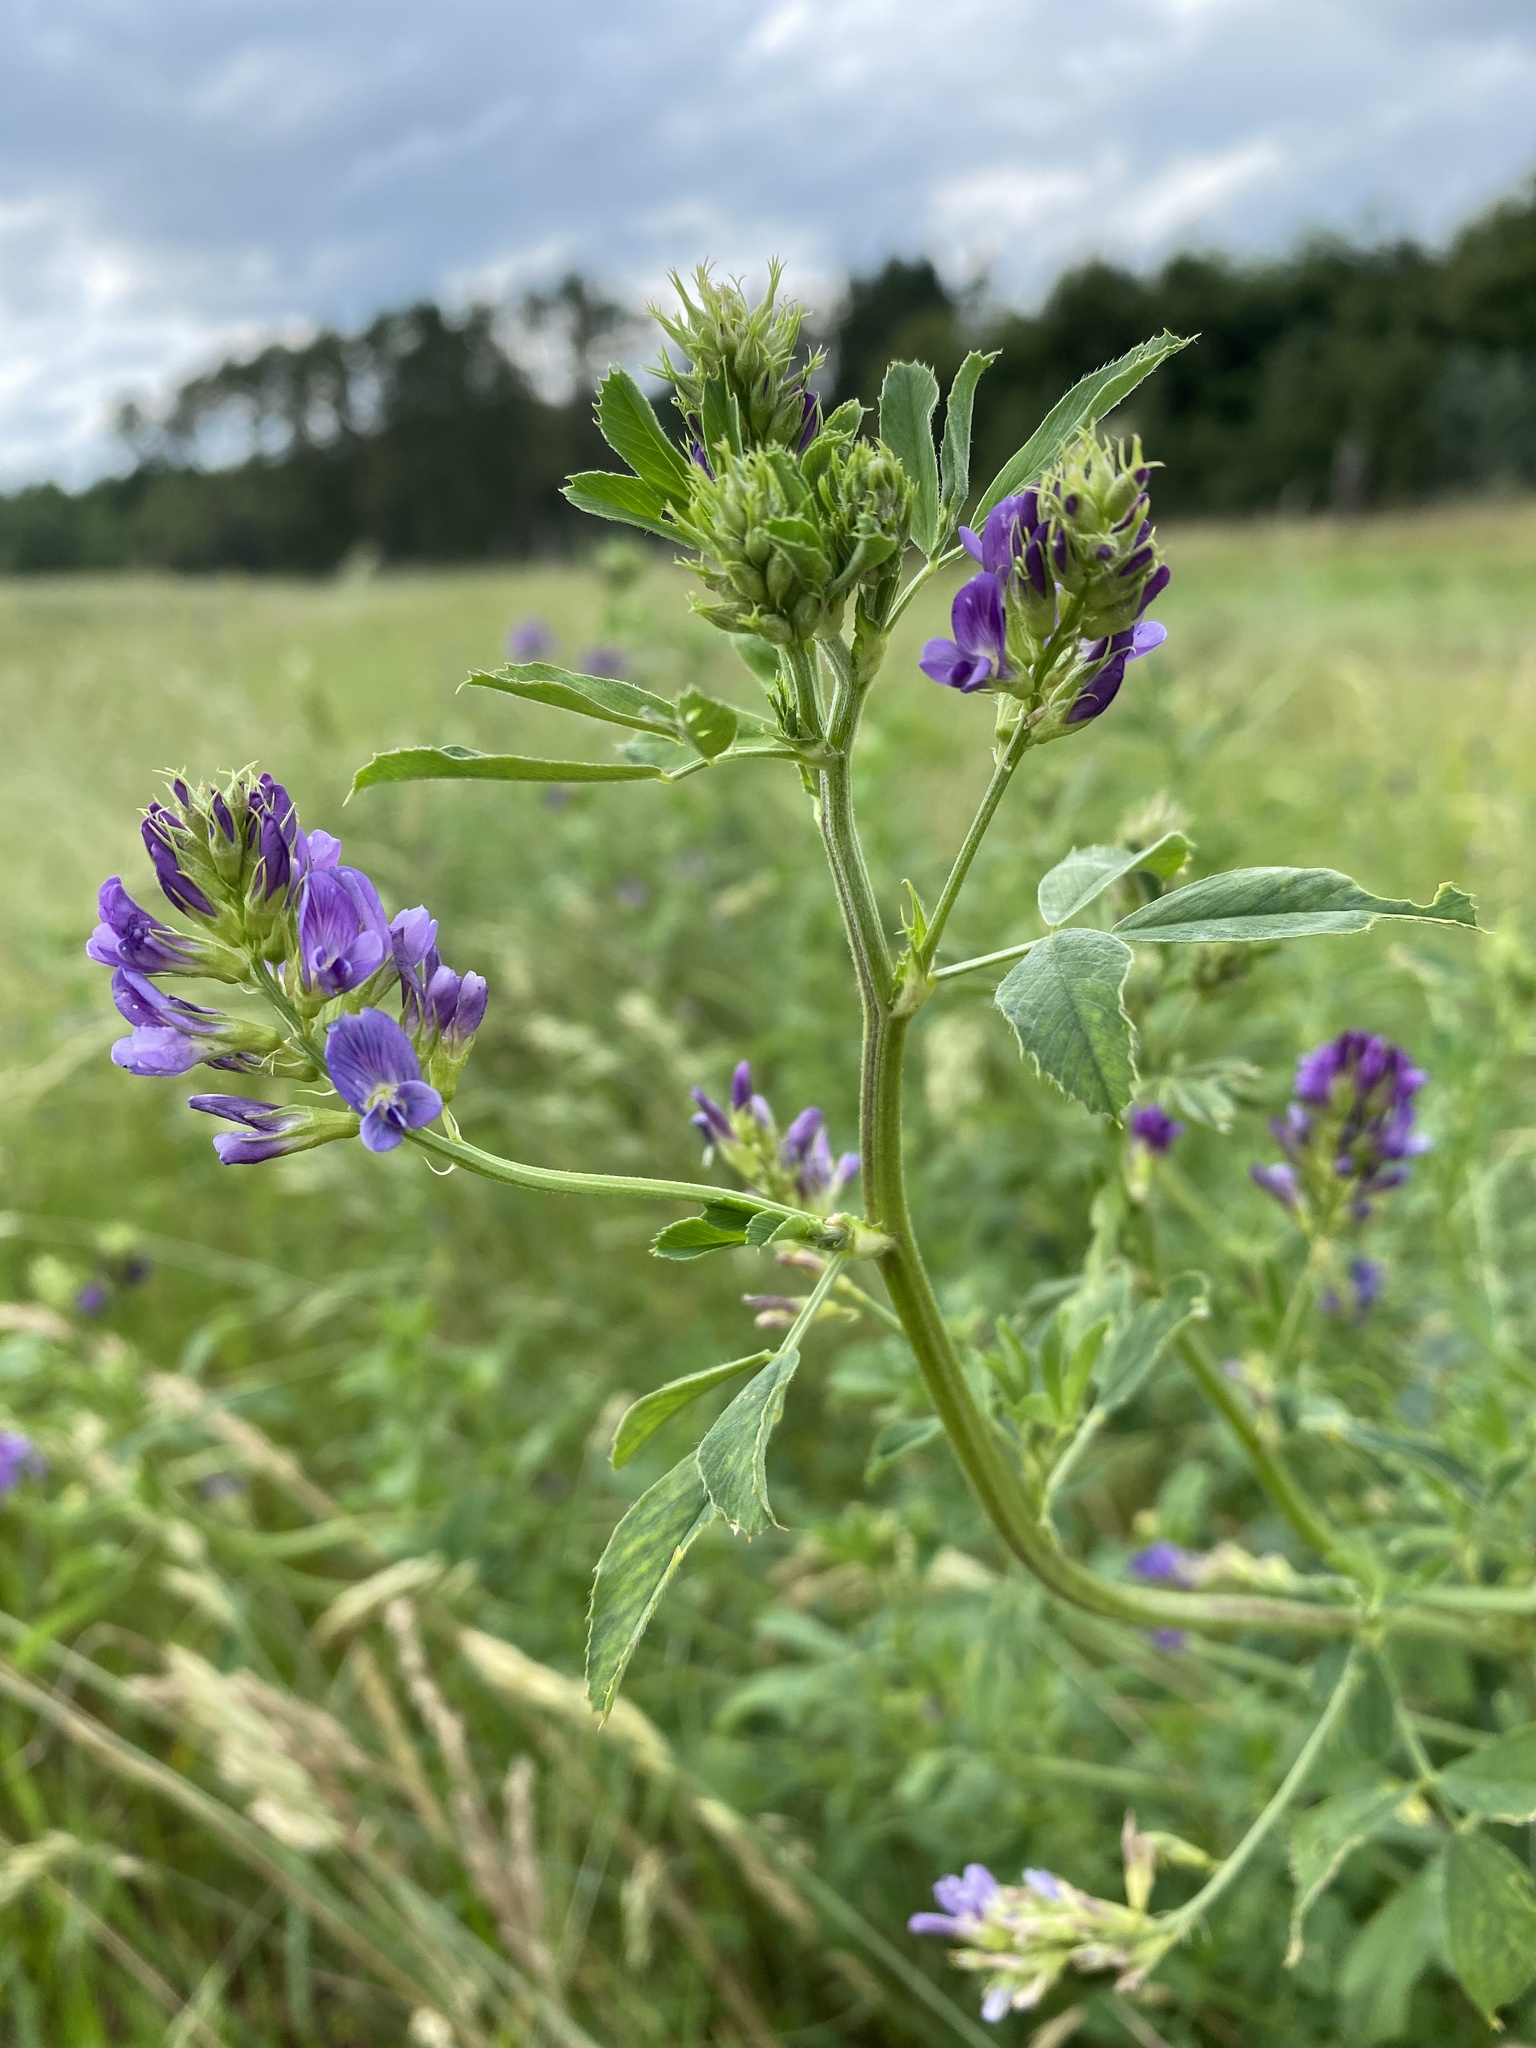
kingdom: Plantae
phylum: Tracheophyta
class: Magnoliopsida
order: Fabales
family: Fabaceae
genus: Medicago
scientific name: Medicago sativa
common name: Alfalfa
